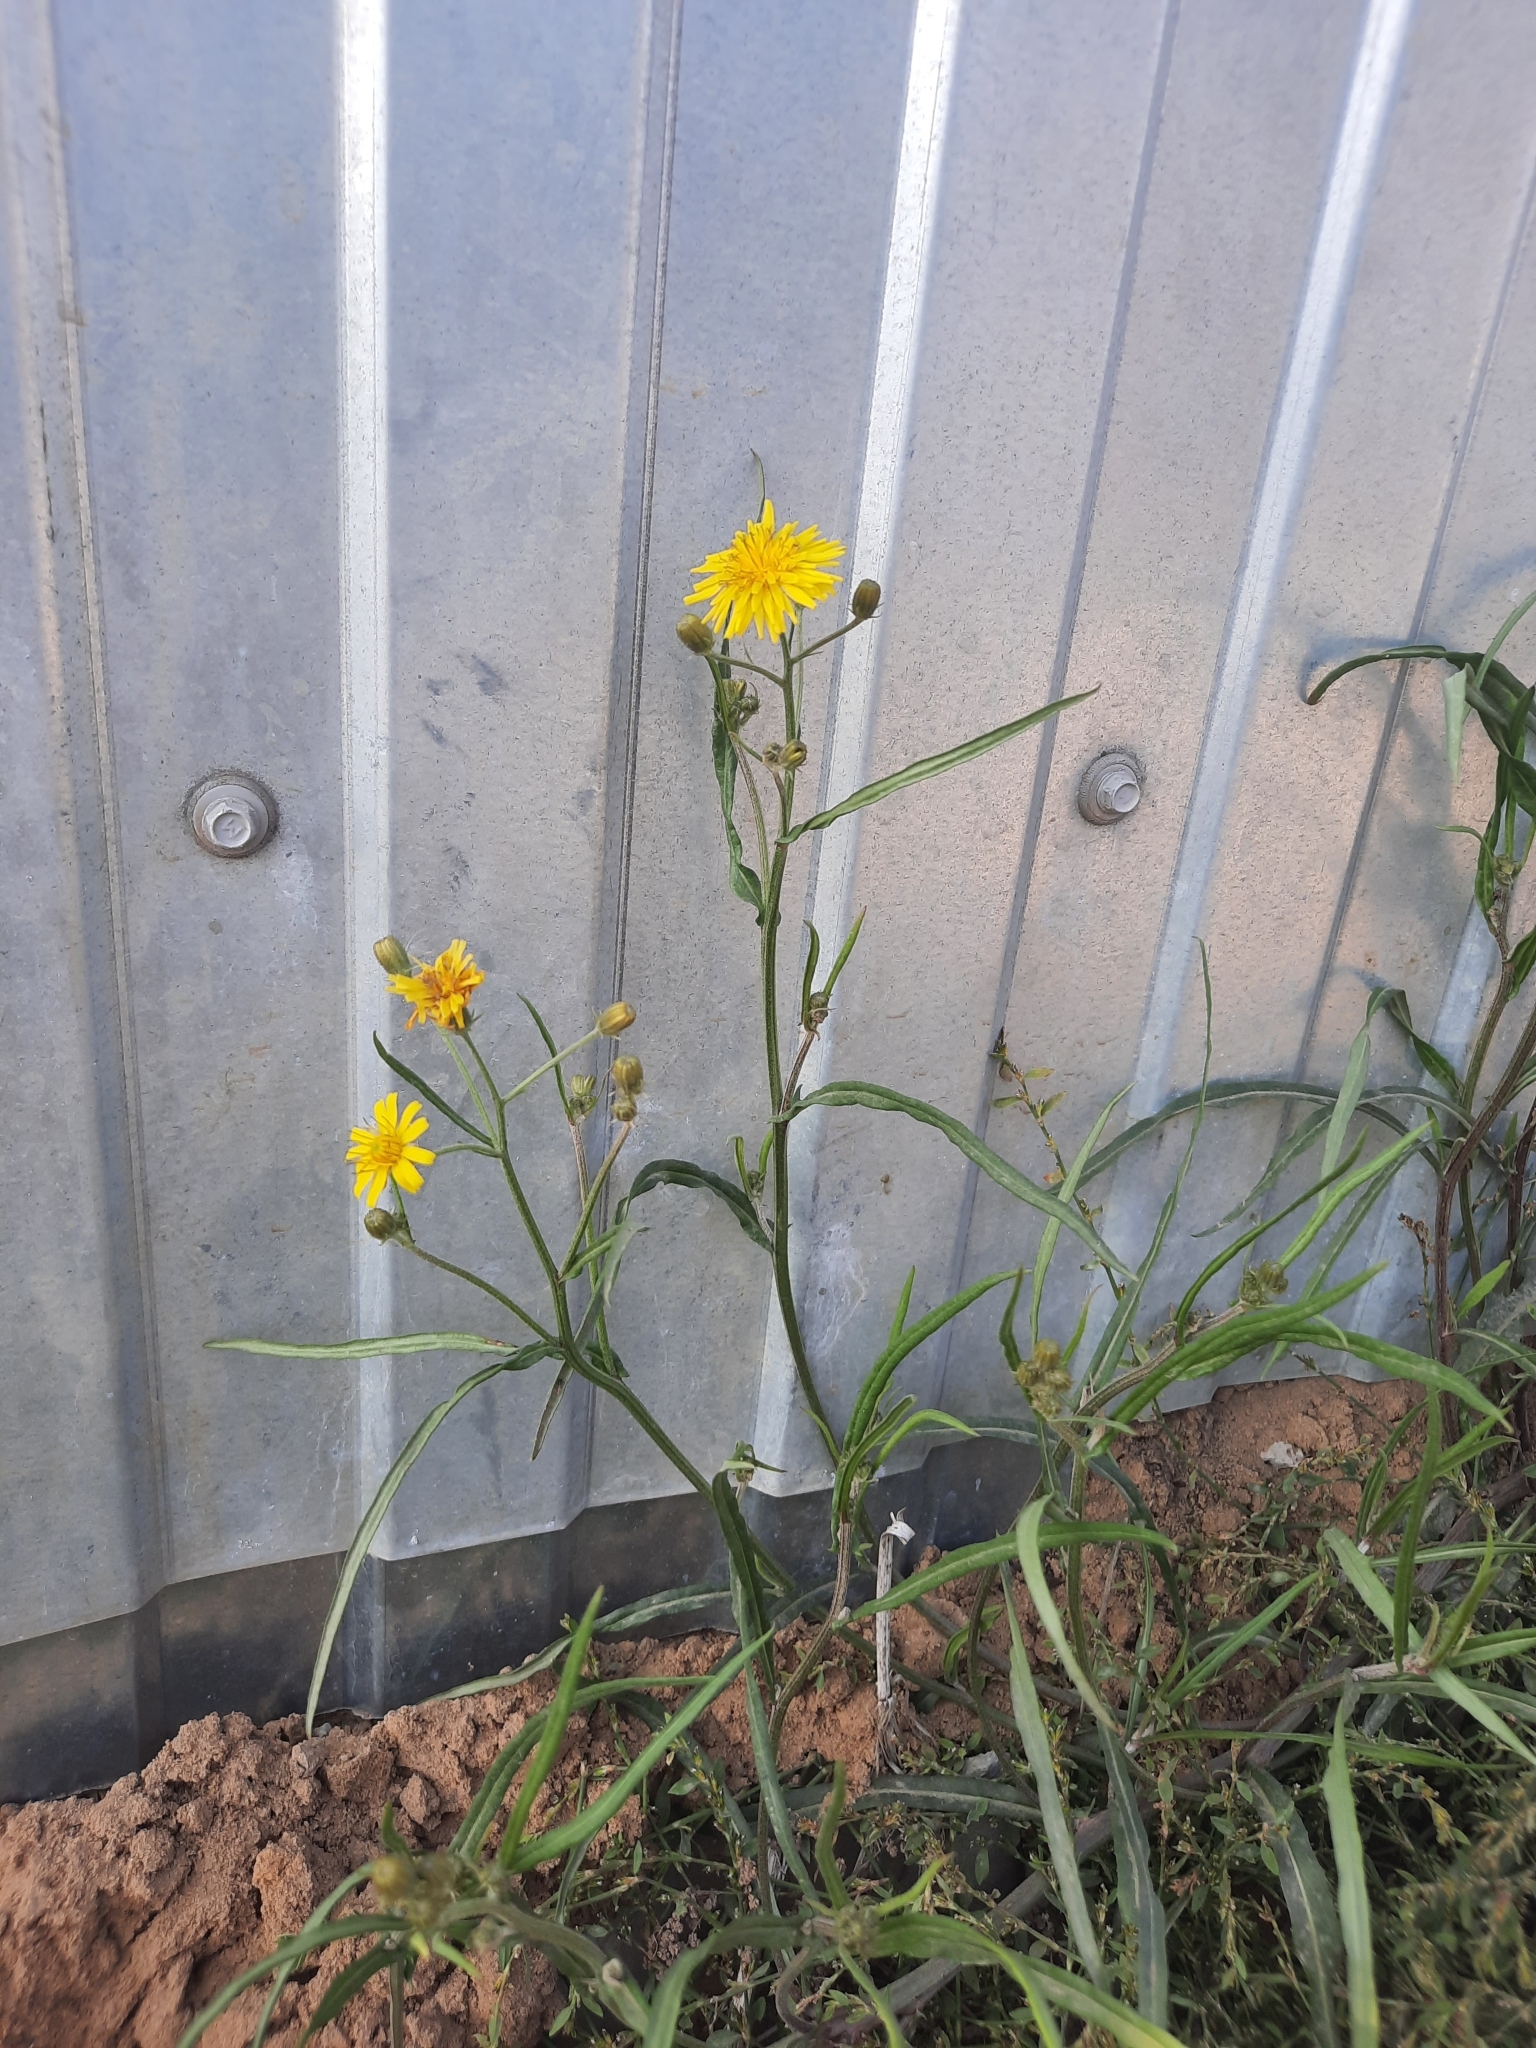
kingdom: Plantae
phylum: Tracheophyta
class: Magnoliopsida
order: Asterales
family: Asteraceae
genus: Crepis
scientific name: Crepis tectorum
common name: Narrow-leaved hawk's-beard
